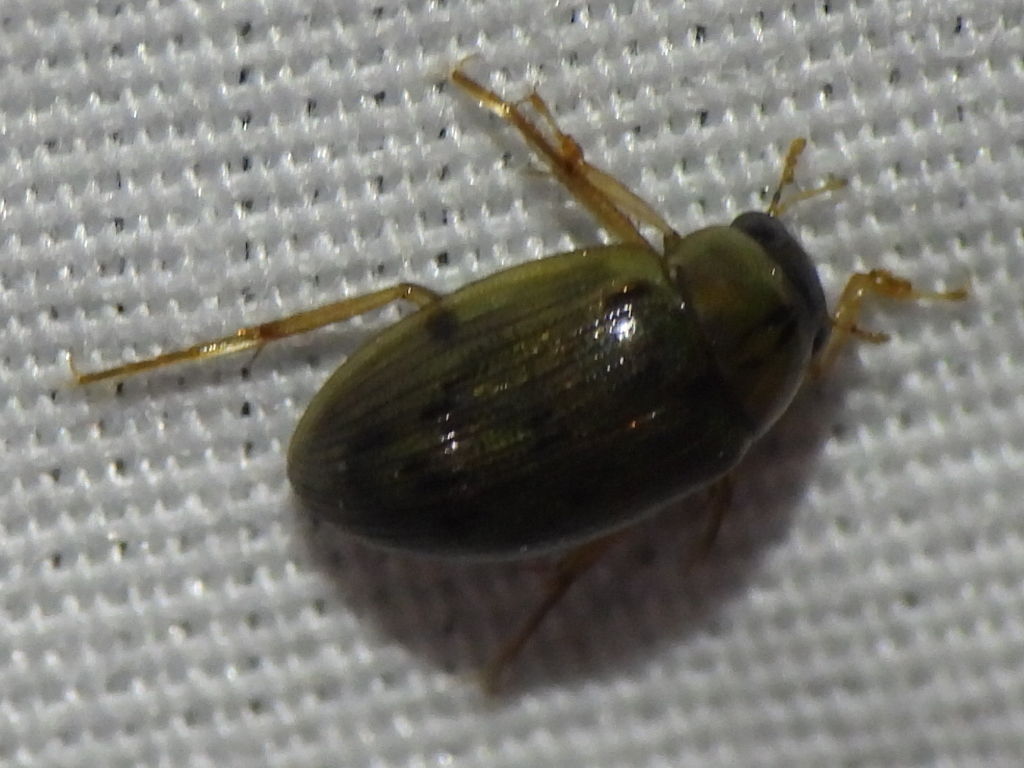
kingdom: Animalia
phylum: Arthropoda
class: Insecta
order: Coleoptera
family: Hydrophilidae
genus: Berosus
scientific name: Berosus
